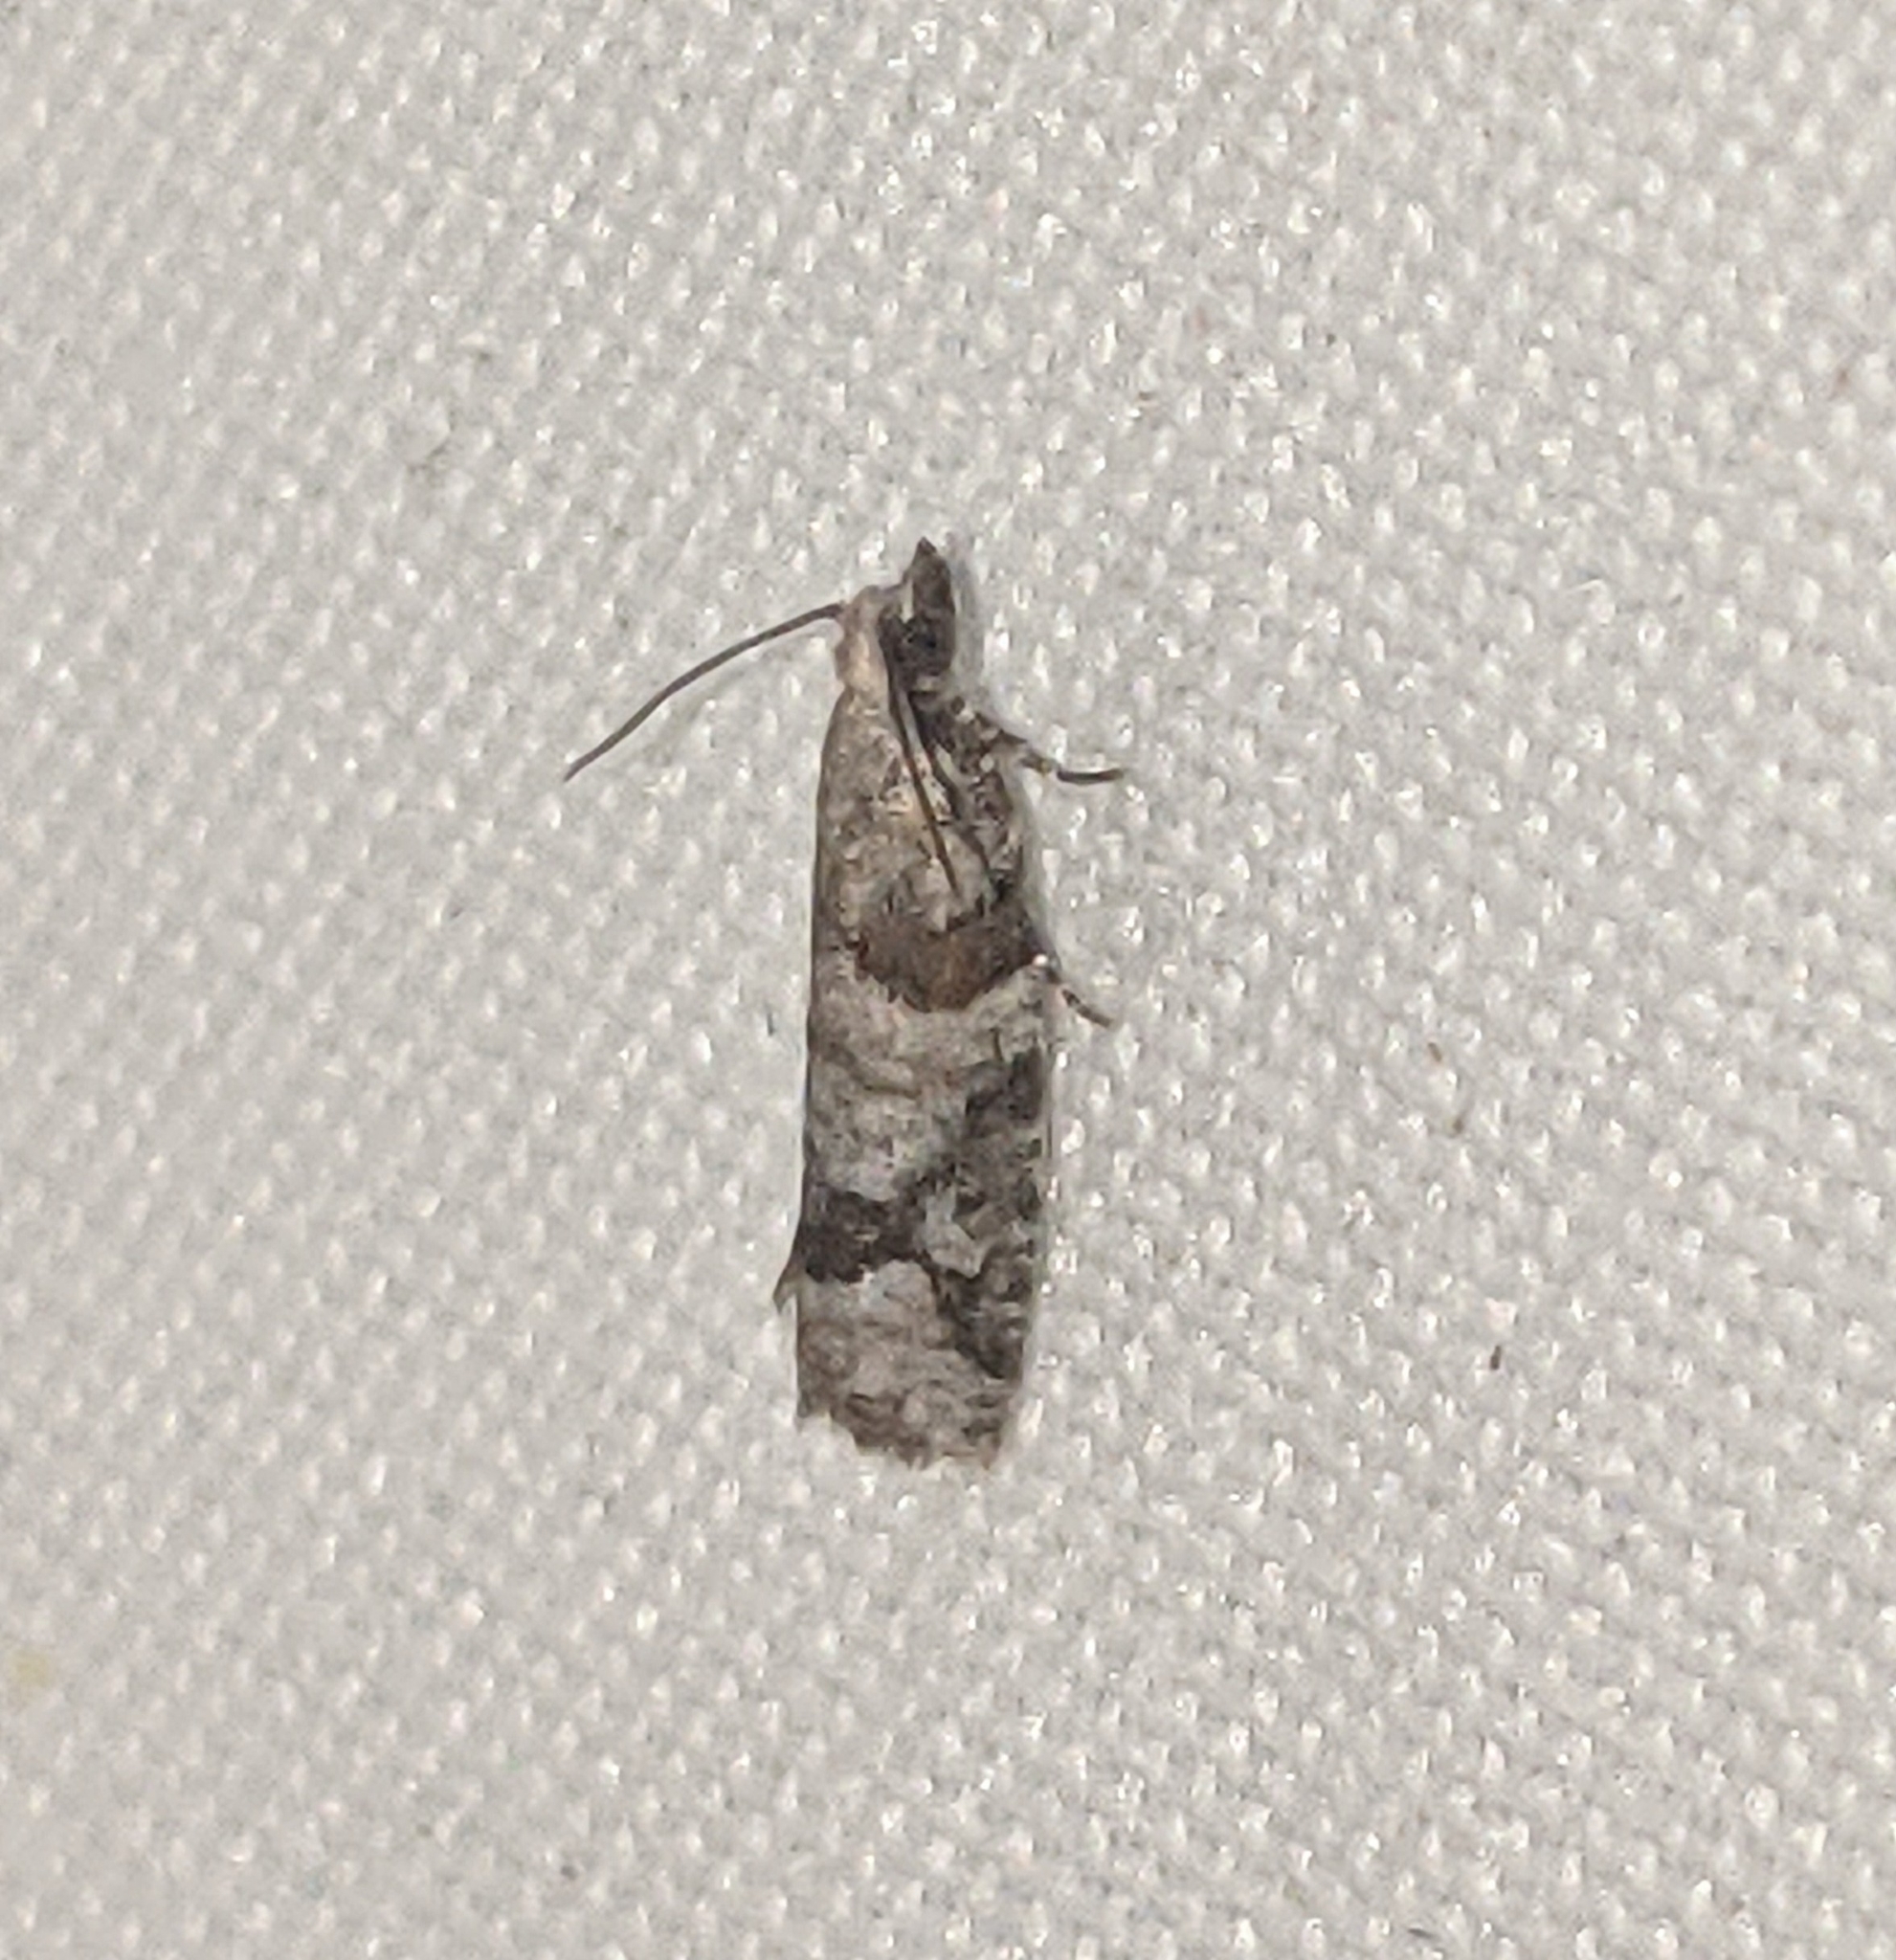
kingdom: Animalia
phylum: Arthropoda
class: Insecta
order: Lepidoptera
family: Tortricidae
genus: Epinotia
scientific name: Epinotia radicana
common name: Red-striped needleworm moth
